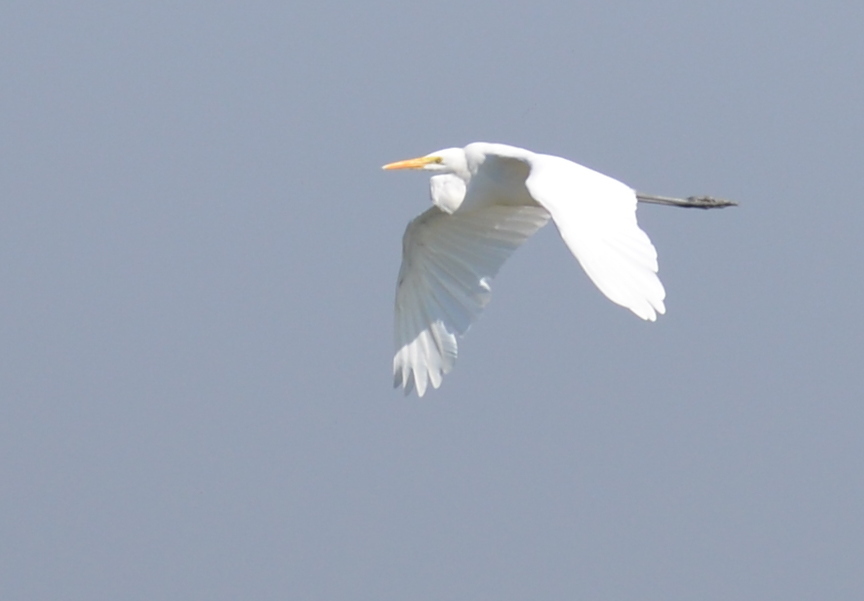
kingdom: Animalia
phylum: Chordata
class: Aves
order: Pelecaniformes
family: Ardeidae
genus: Ardea
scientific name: Ardea alba
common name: Great egret
